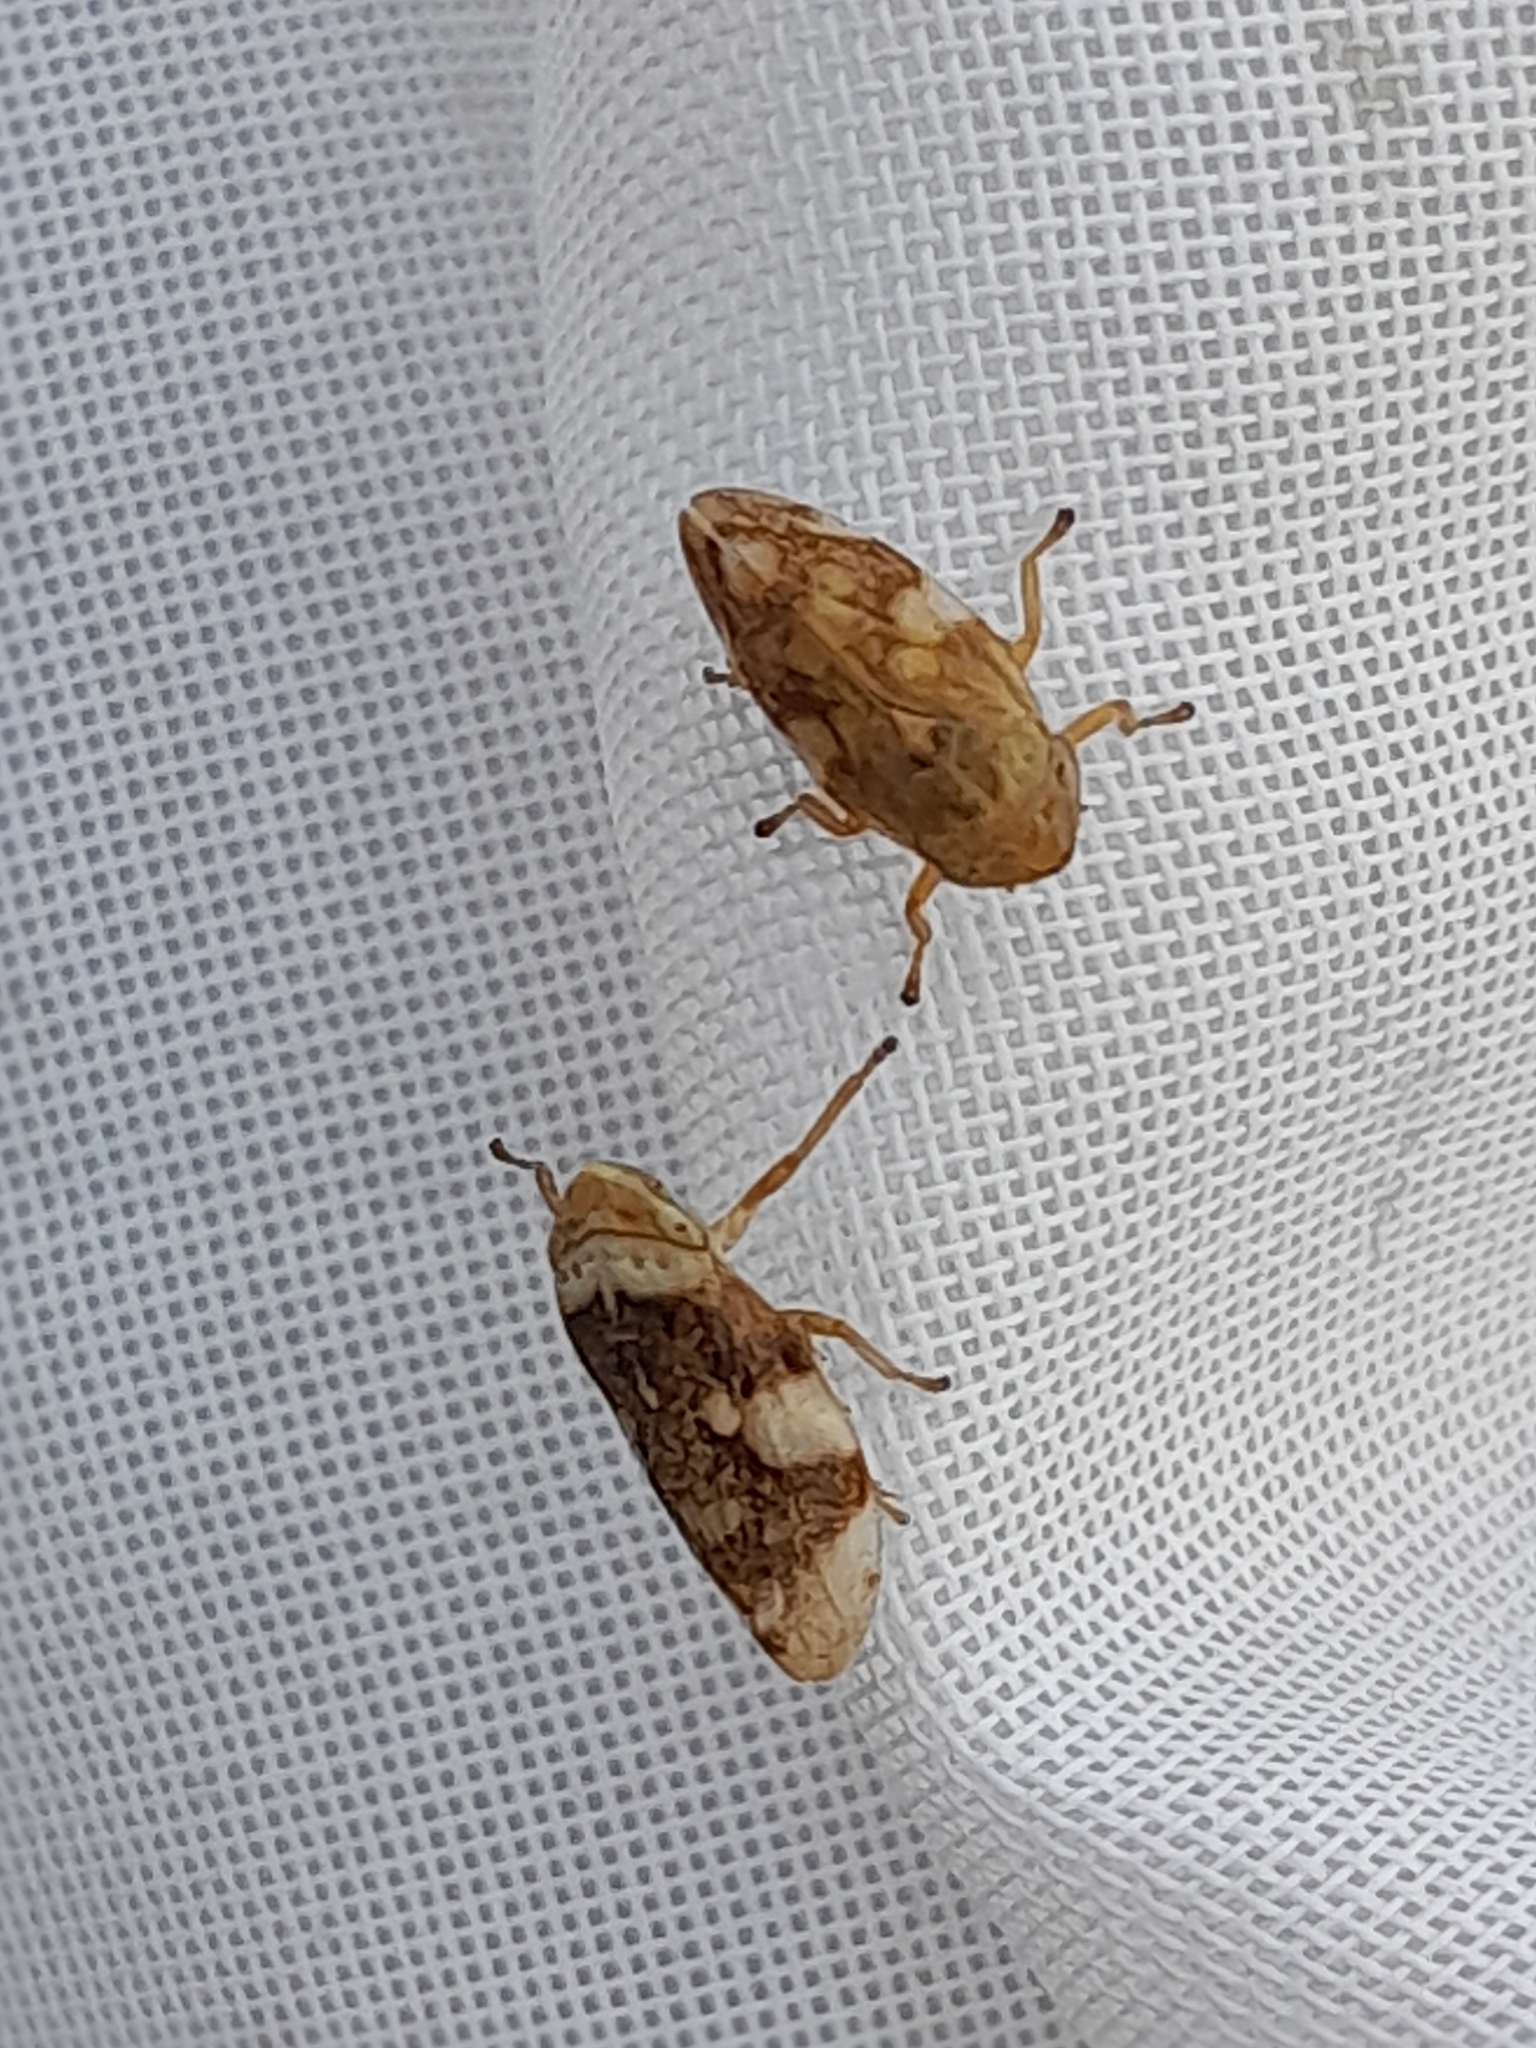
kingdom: Animalia
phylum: Arthropoda
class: Insecta
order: Hemiptera
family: Aphrophoridae
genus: Philaenus
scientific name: Philaenus spumarius
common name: Meadow spittlebug
